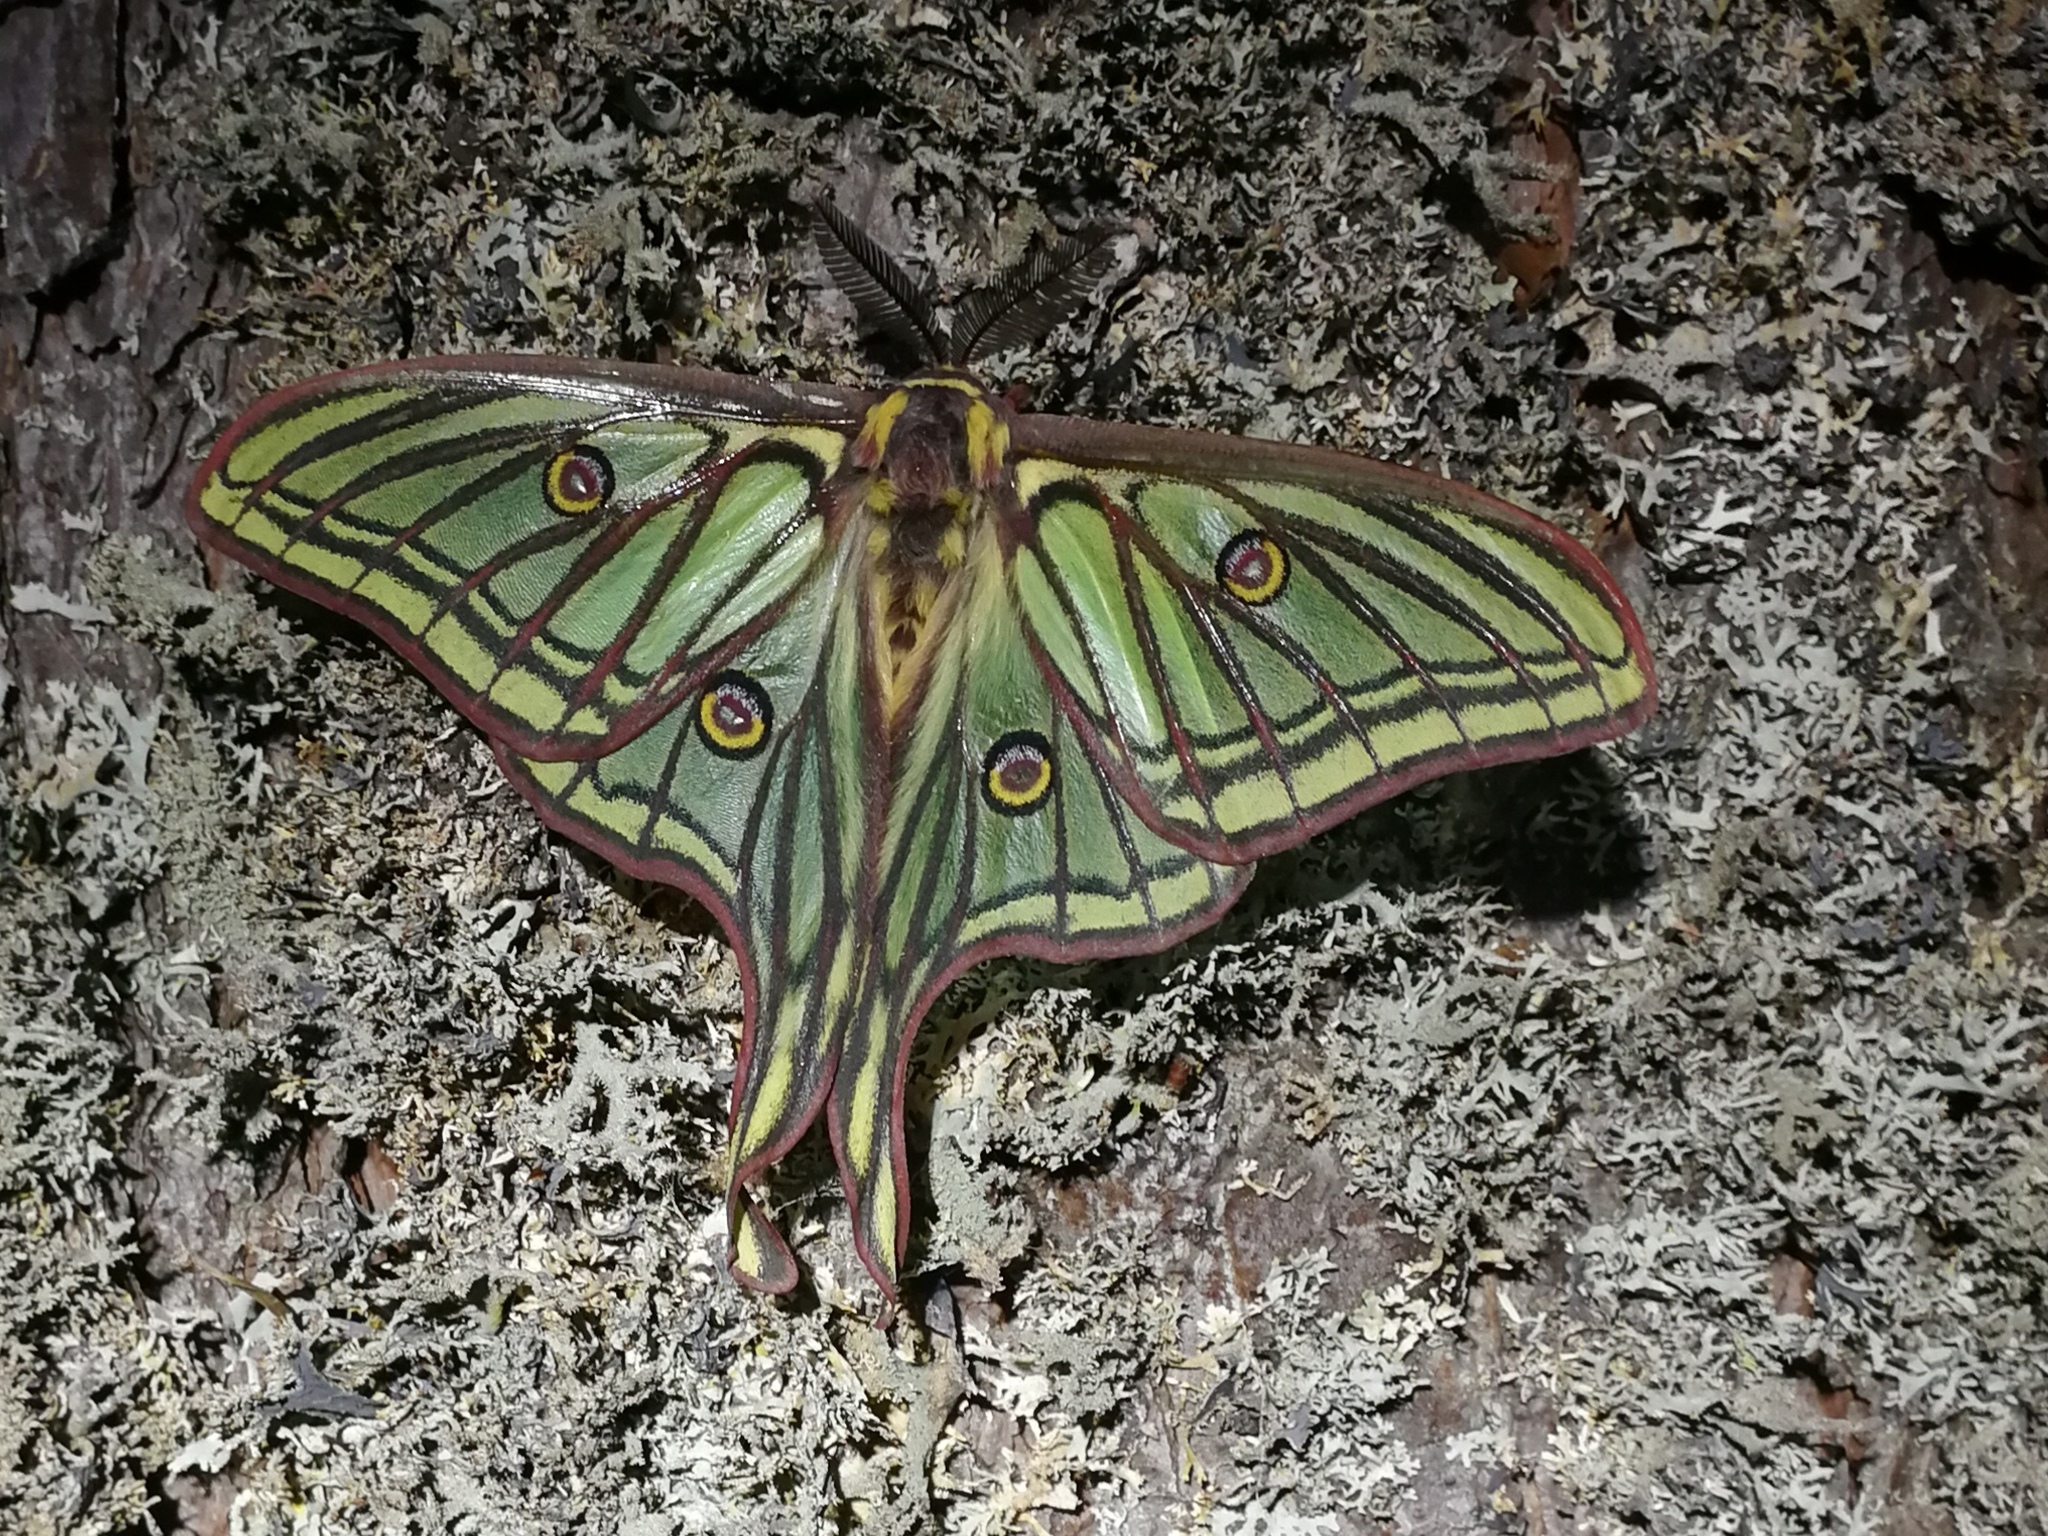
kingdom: Animalia
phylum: Arthropoda
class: Insecta
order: Lepidoptera
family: Saturniidae
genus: Graellsia
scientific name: Graellsia isabellae
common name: Spanish moon moth
